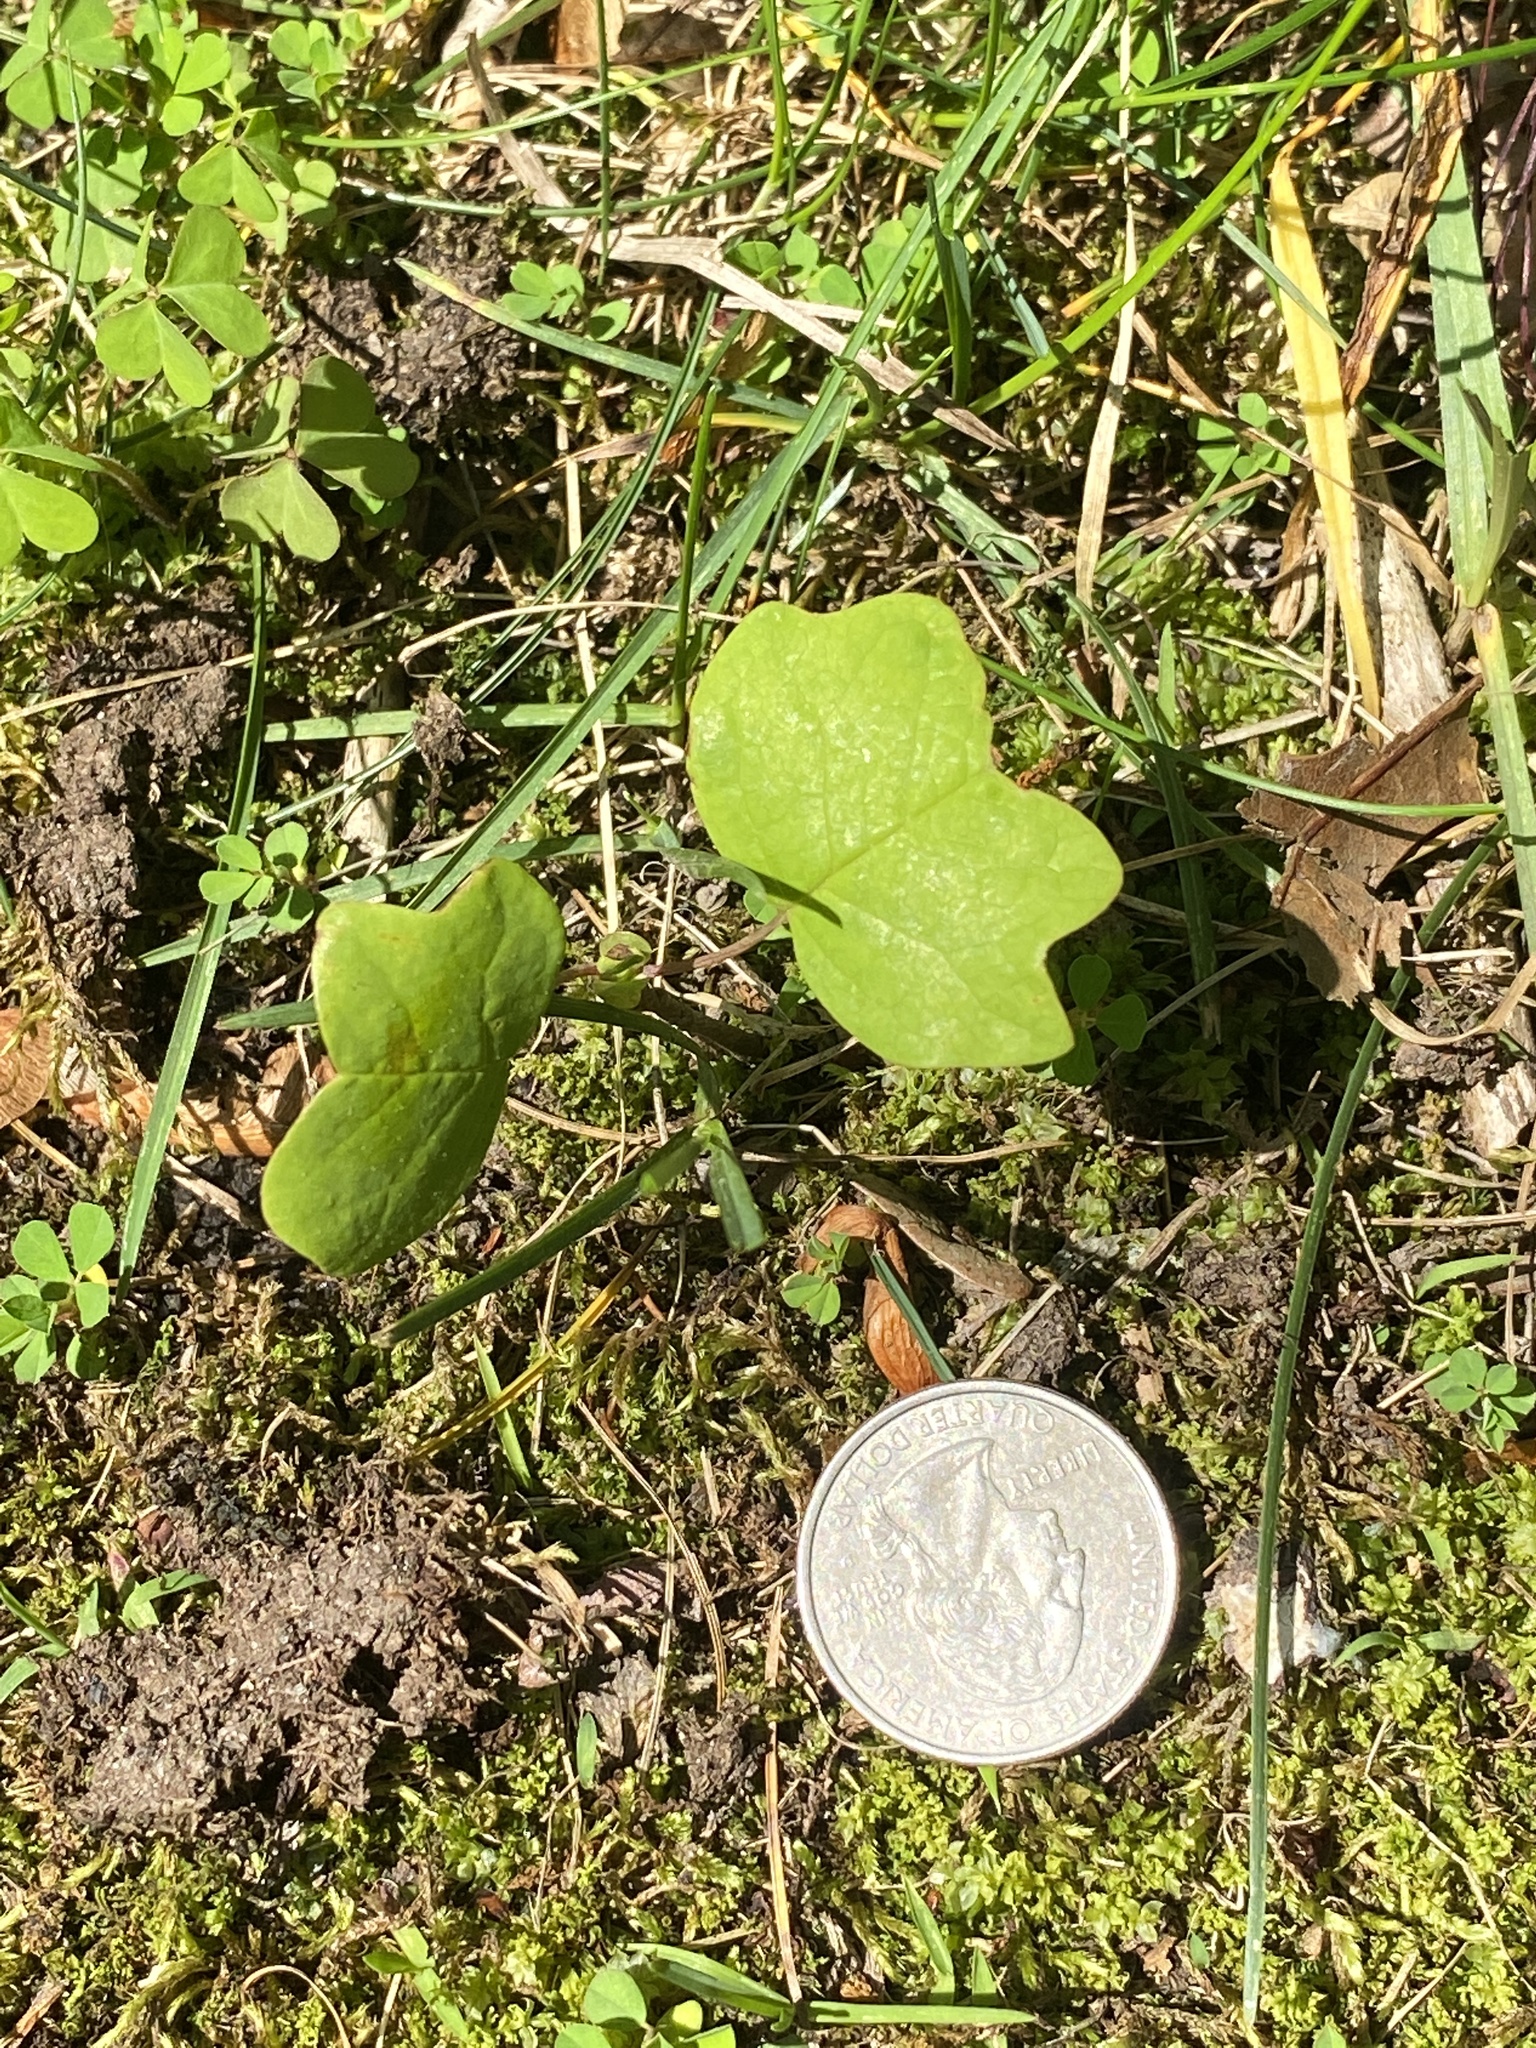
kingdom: Plantae
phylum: Tracheophyta
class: Magnoliopsida
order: Magnoliales
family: Magnoliaceae
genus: Liriodendron
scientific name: Liriodendron tulipifera
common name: Tulip tree
